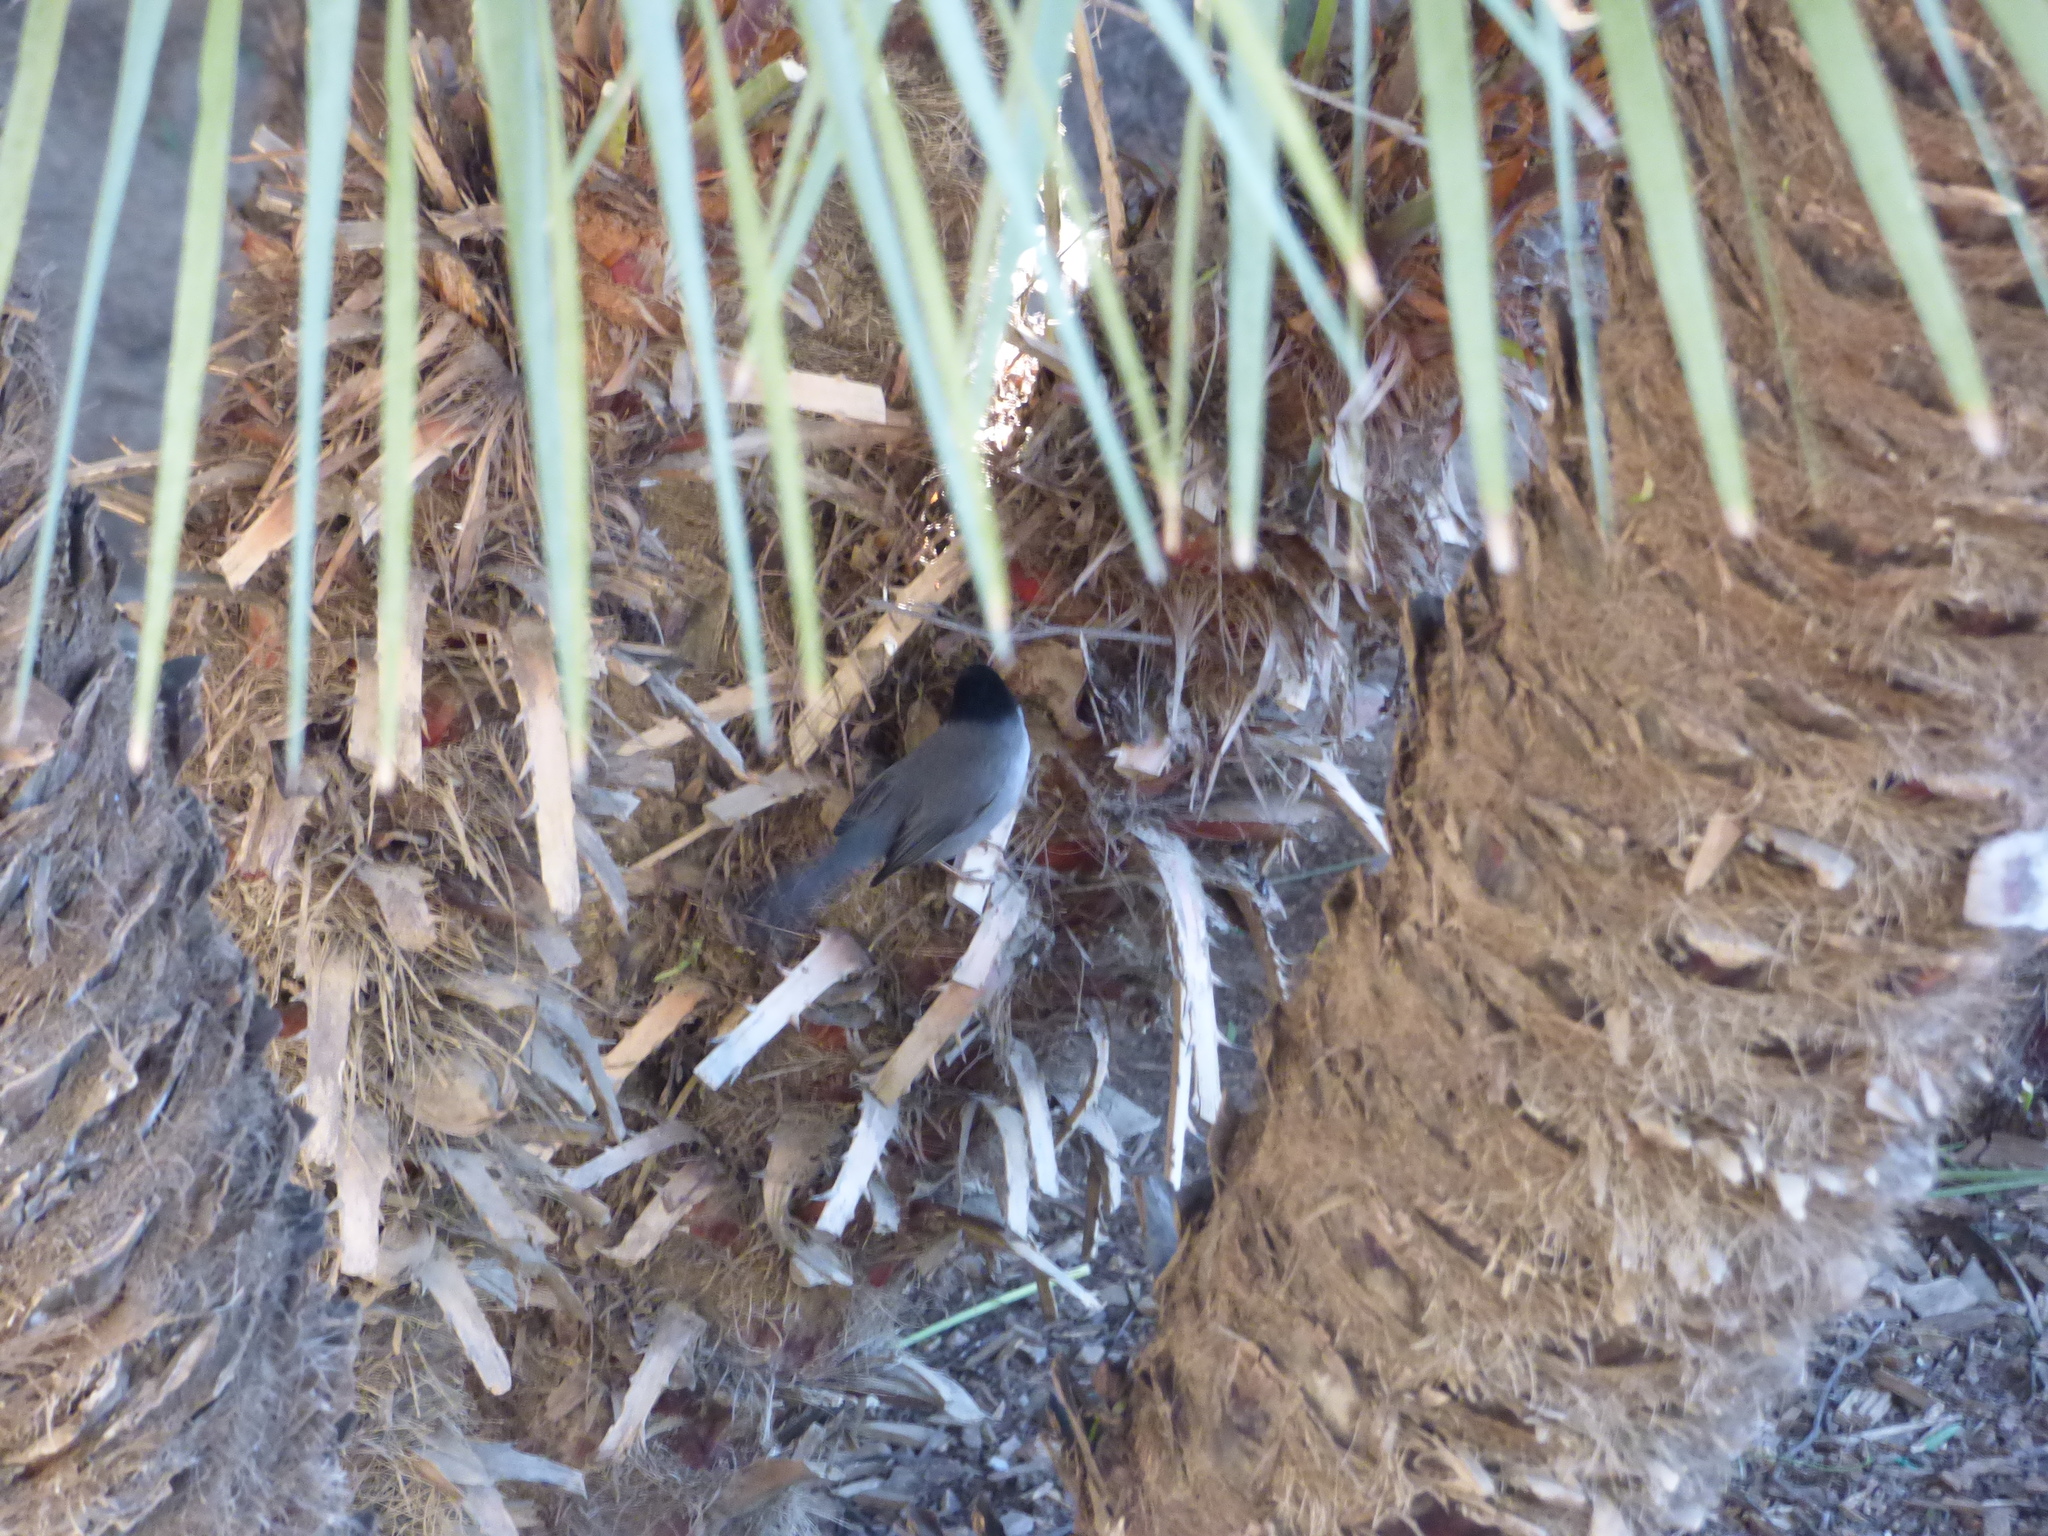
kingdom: Animalia
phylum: Chordata
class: Aves
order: Passeriformes
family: Sylviidae
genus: Curruca
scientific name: Curruca melanocephala
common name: Sardinian warbler
